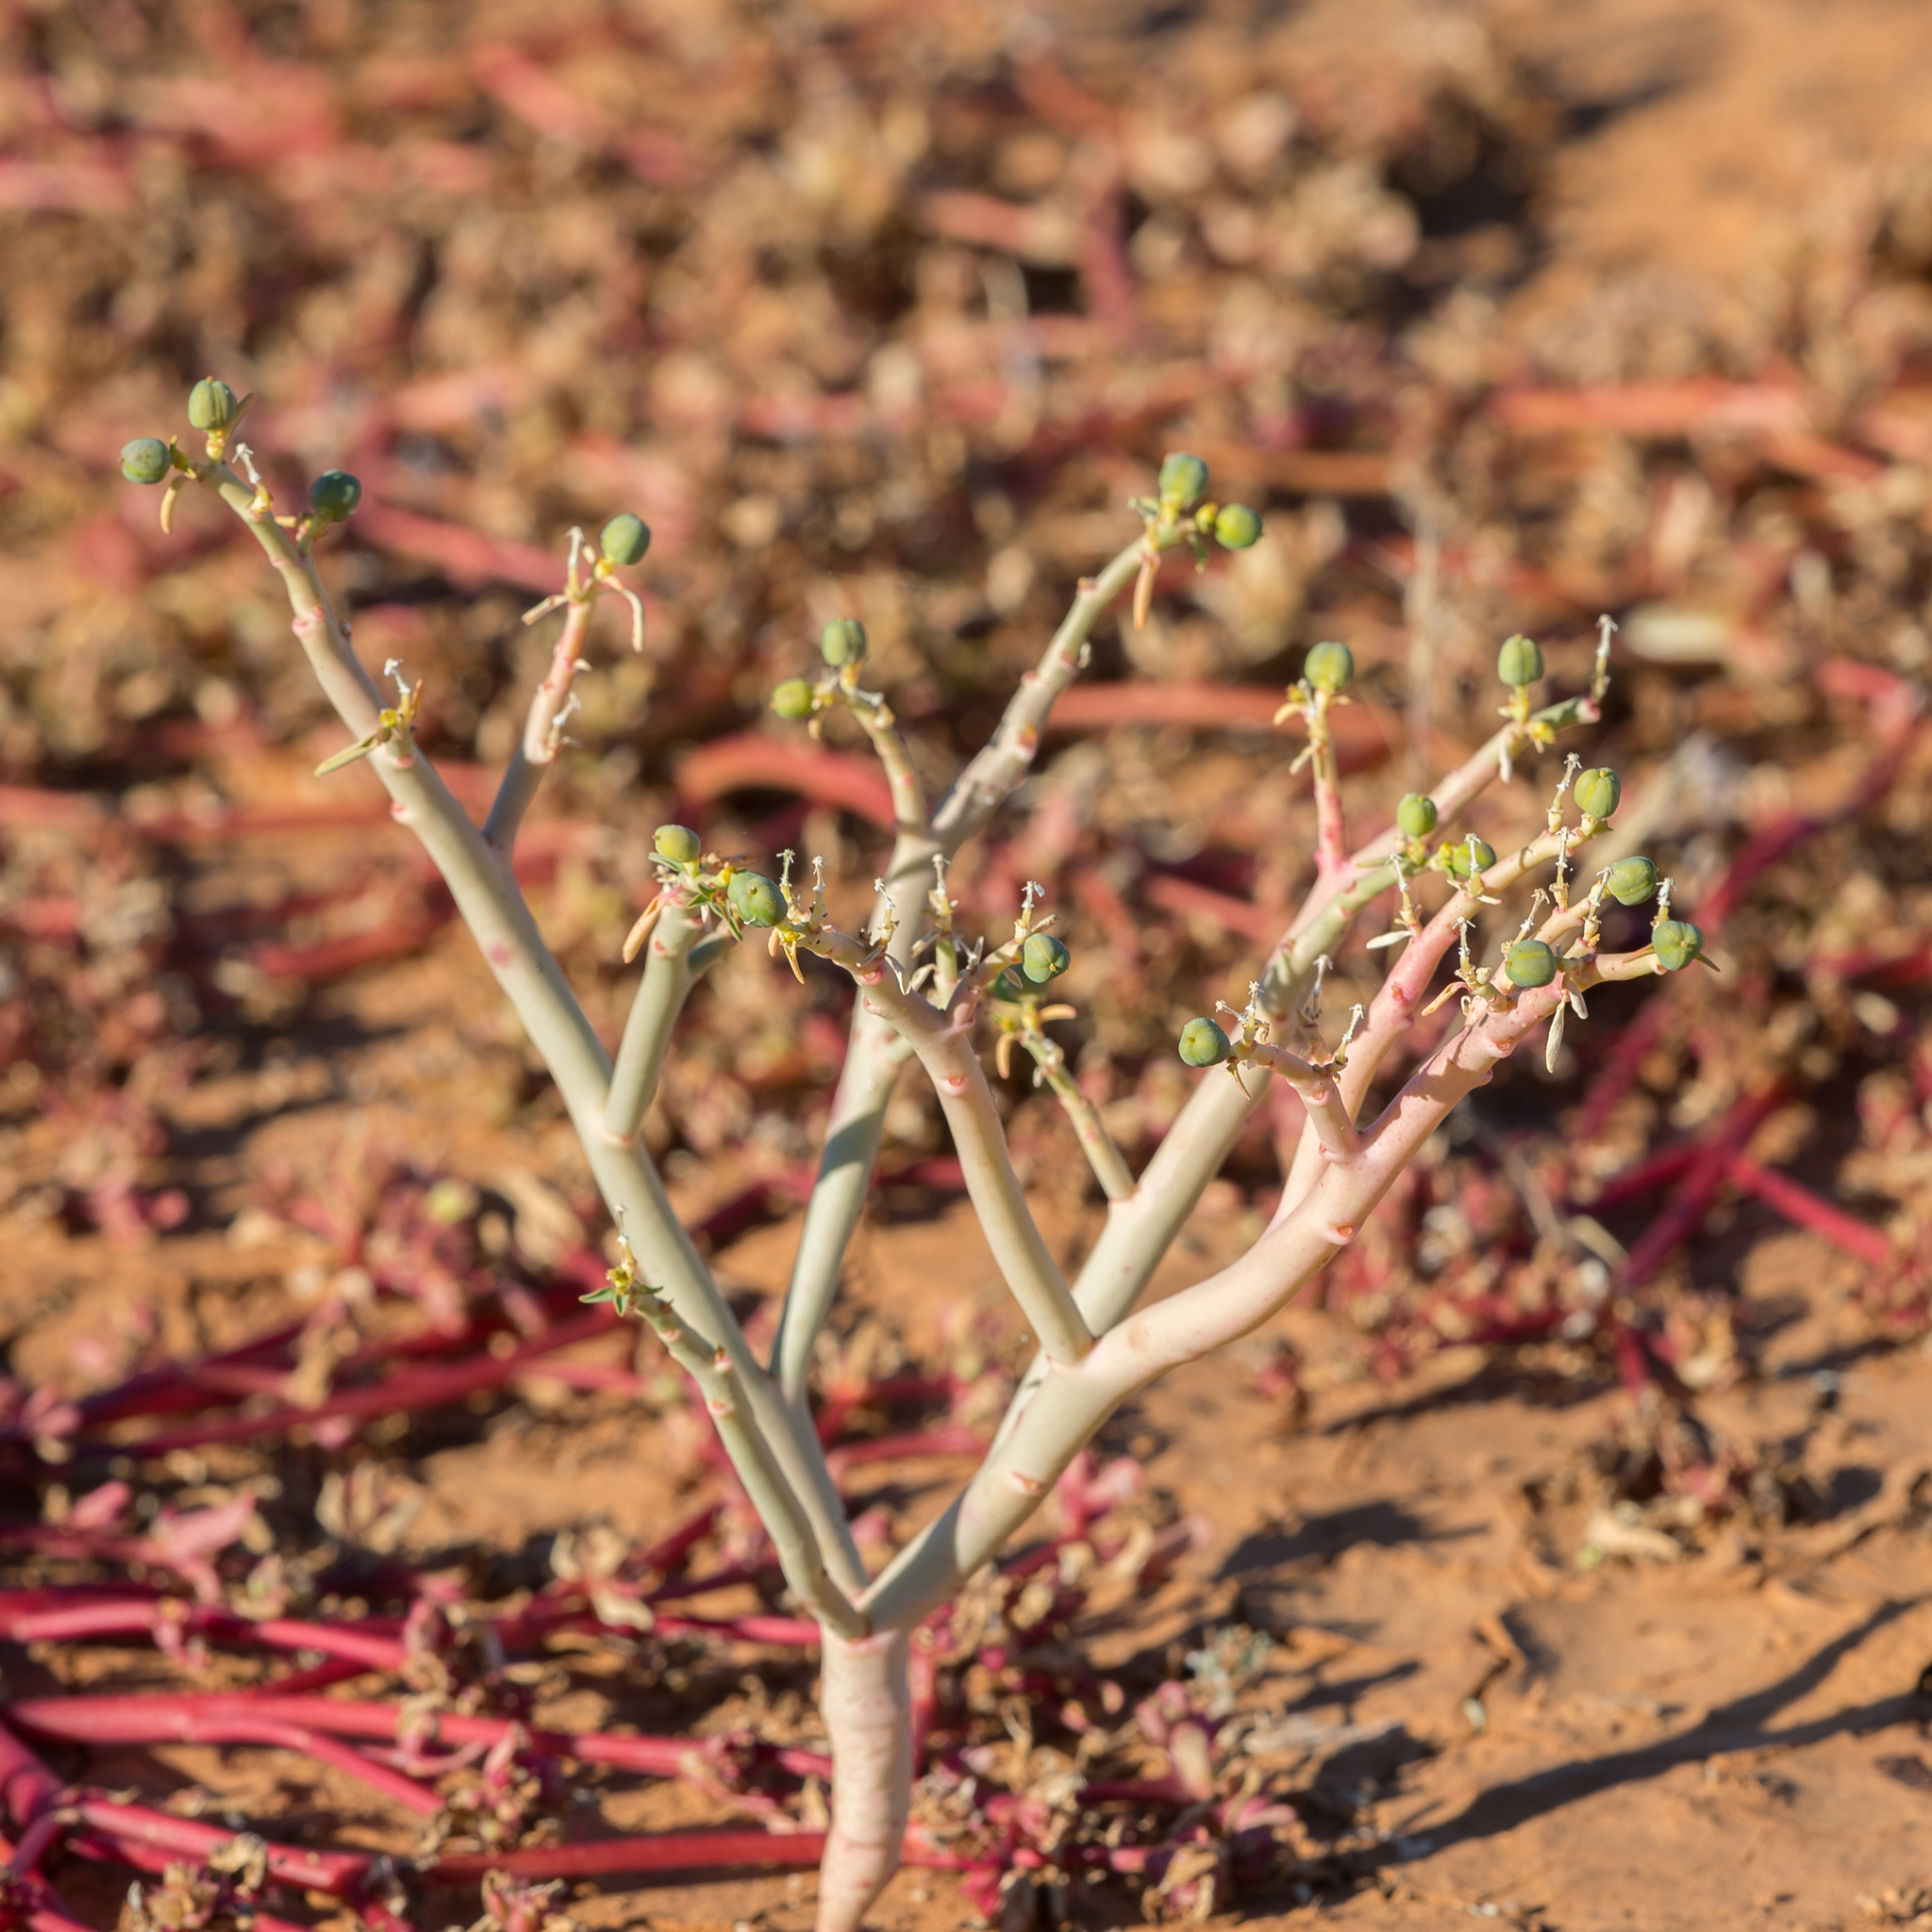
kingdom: Plantae
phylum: Tracheophyta
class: Magnoliopsida
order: Malpighiales
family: Euphorbiaceae
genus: Euphorbia
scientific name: Euphorbia tannensis
